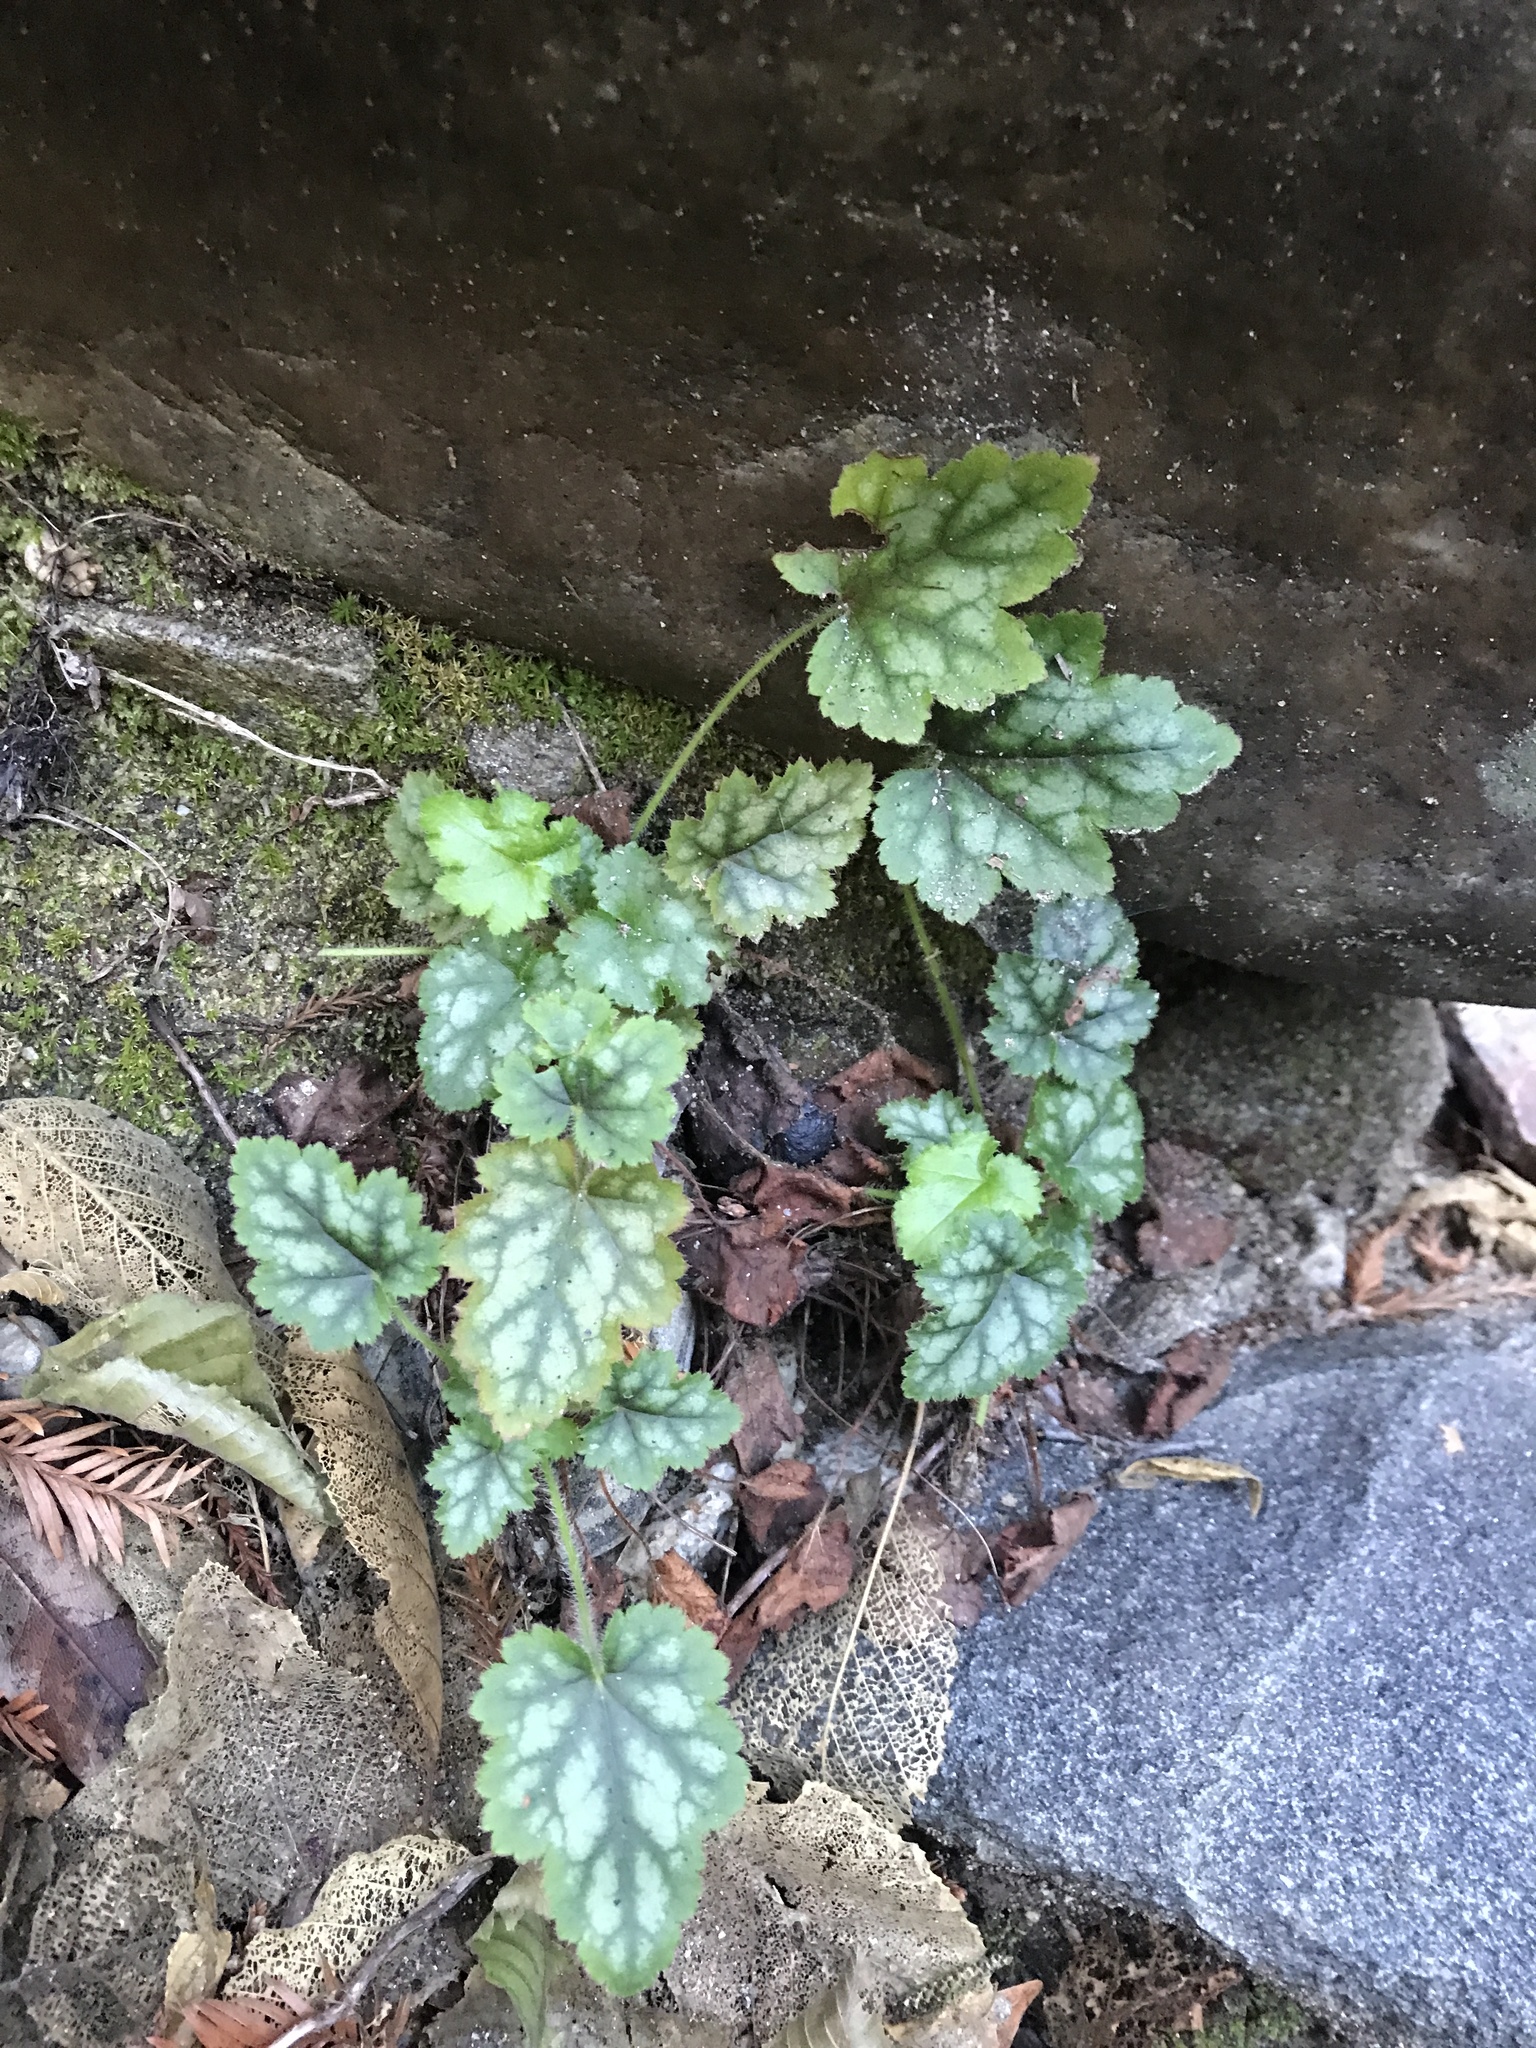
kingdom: Plantae
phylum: Tracheophyta
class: Magnoliopsida
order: Saxifragales
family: Saxifragaceae
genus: Heuchera
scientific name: Heuchera micrantha
